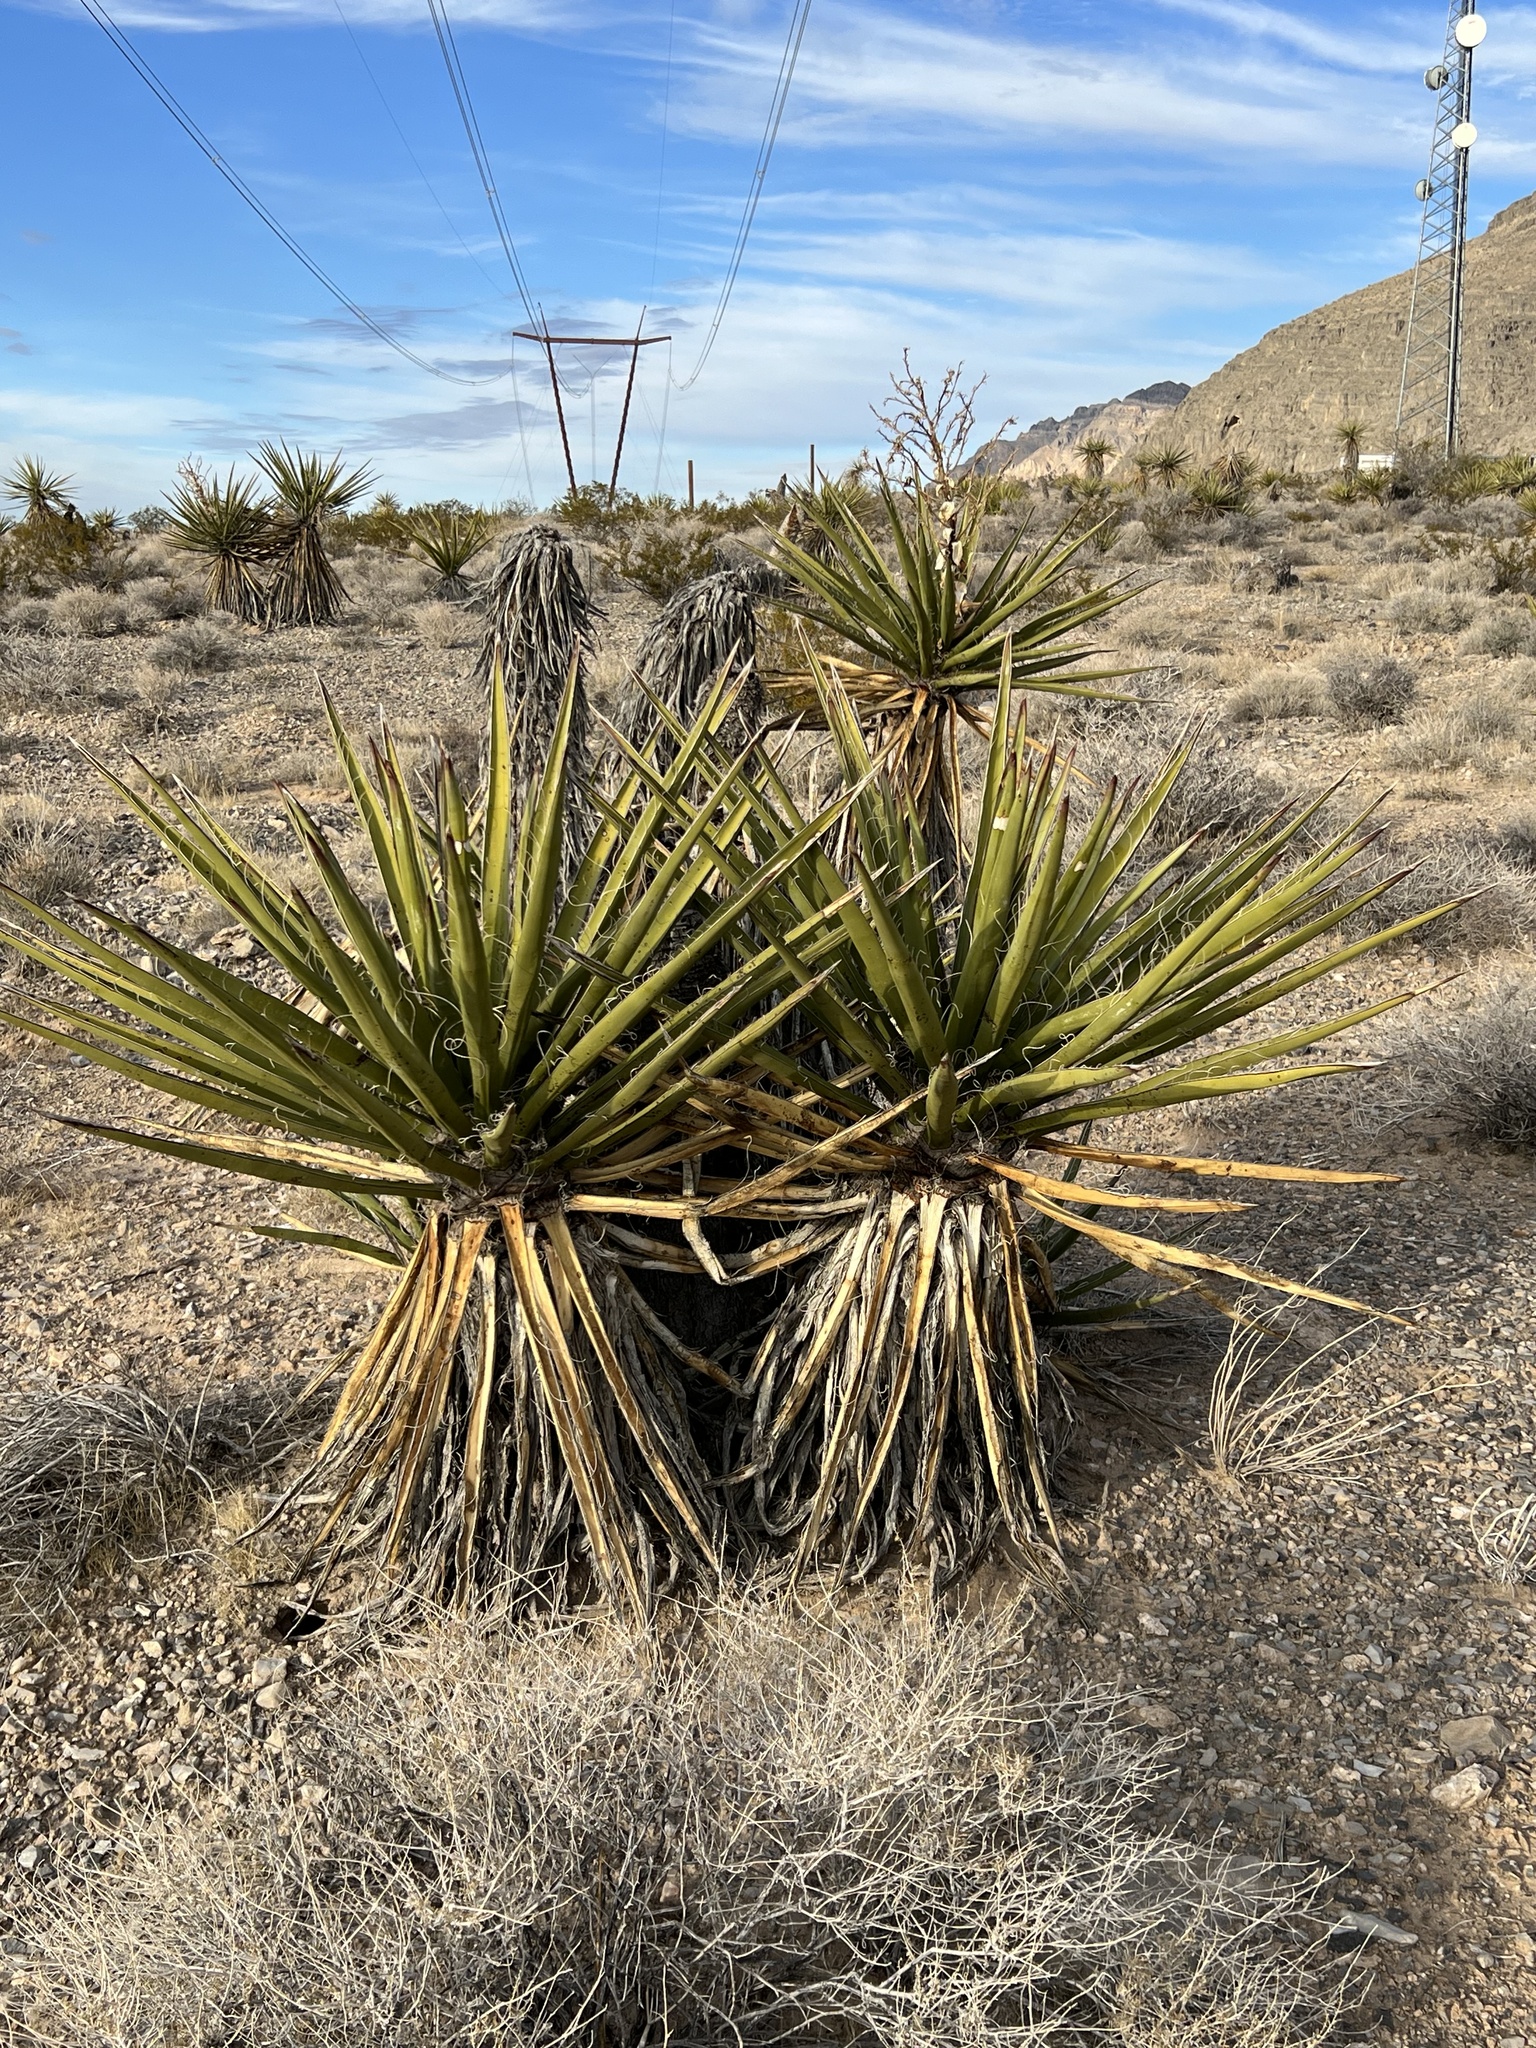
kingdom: Plantae
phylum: Tracheophyta
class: Liliopsida
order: Asparagales
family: Asparagaceae
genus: Yucca
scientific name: Yucca schidigera
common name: Mojave yucca
